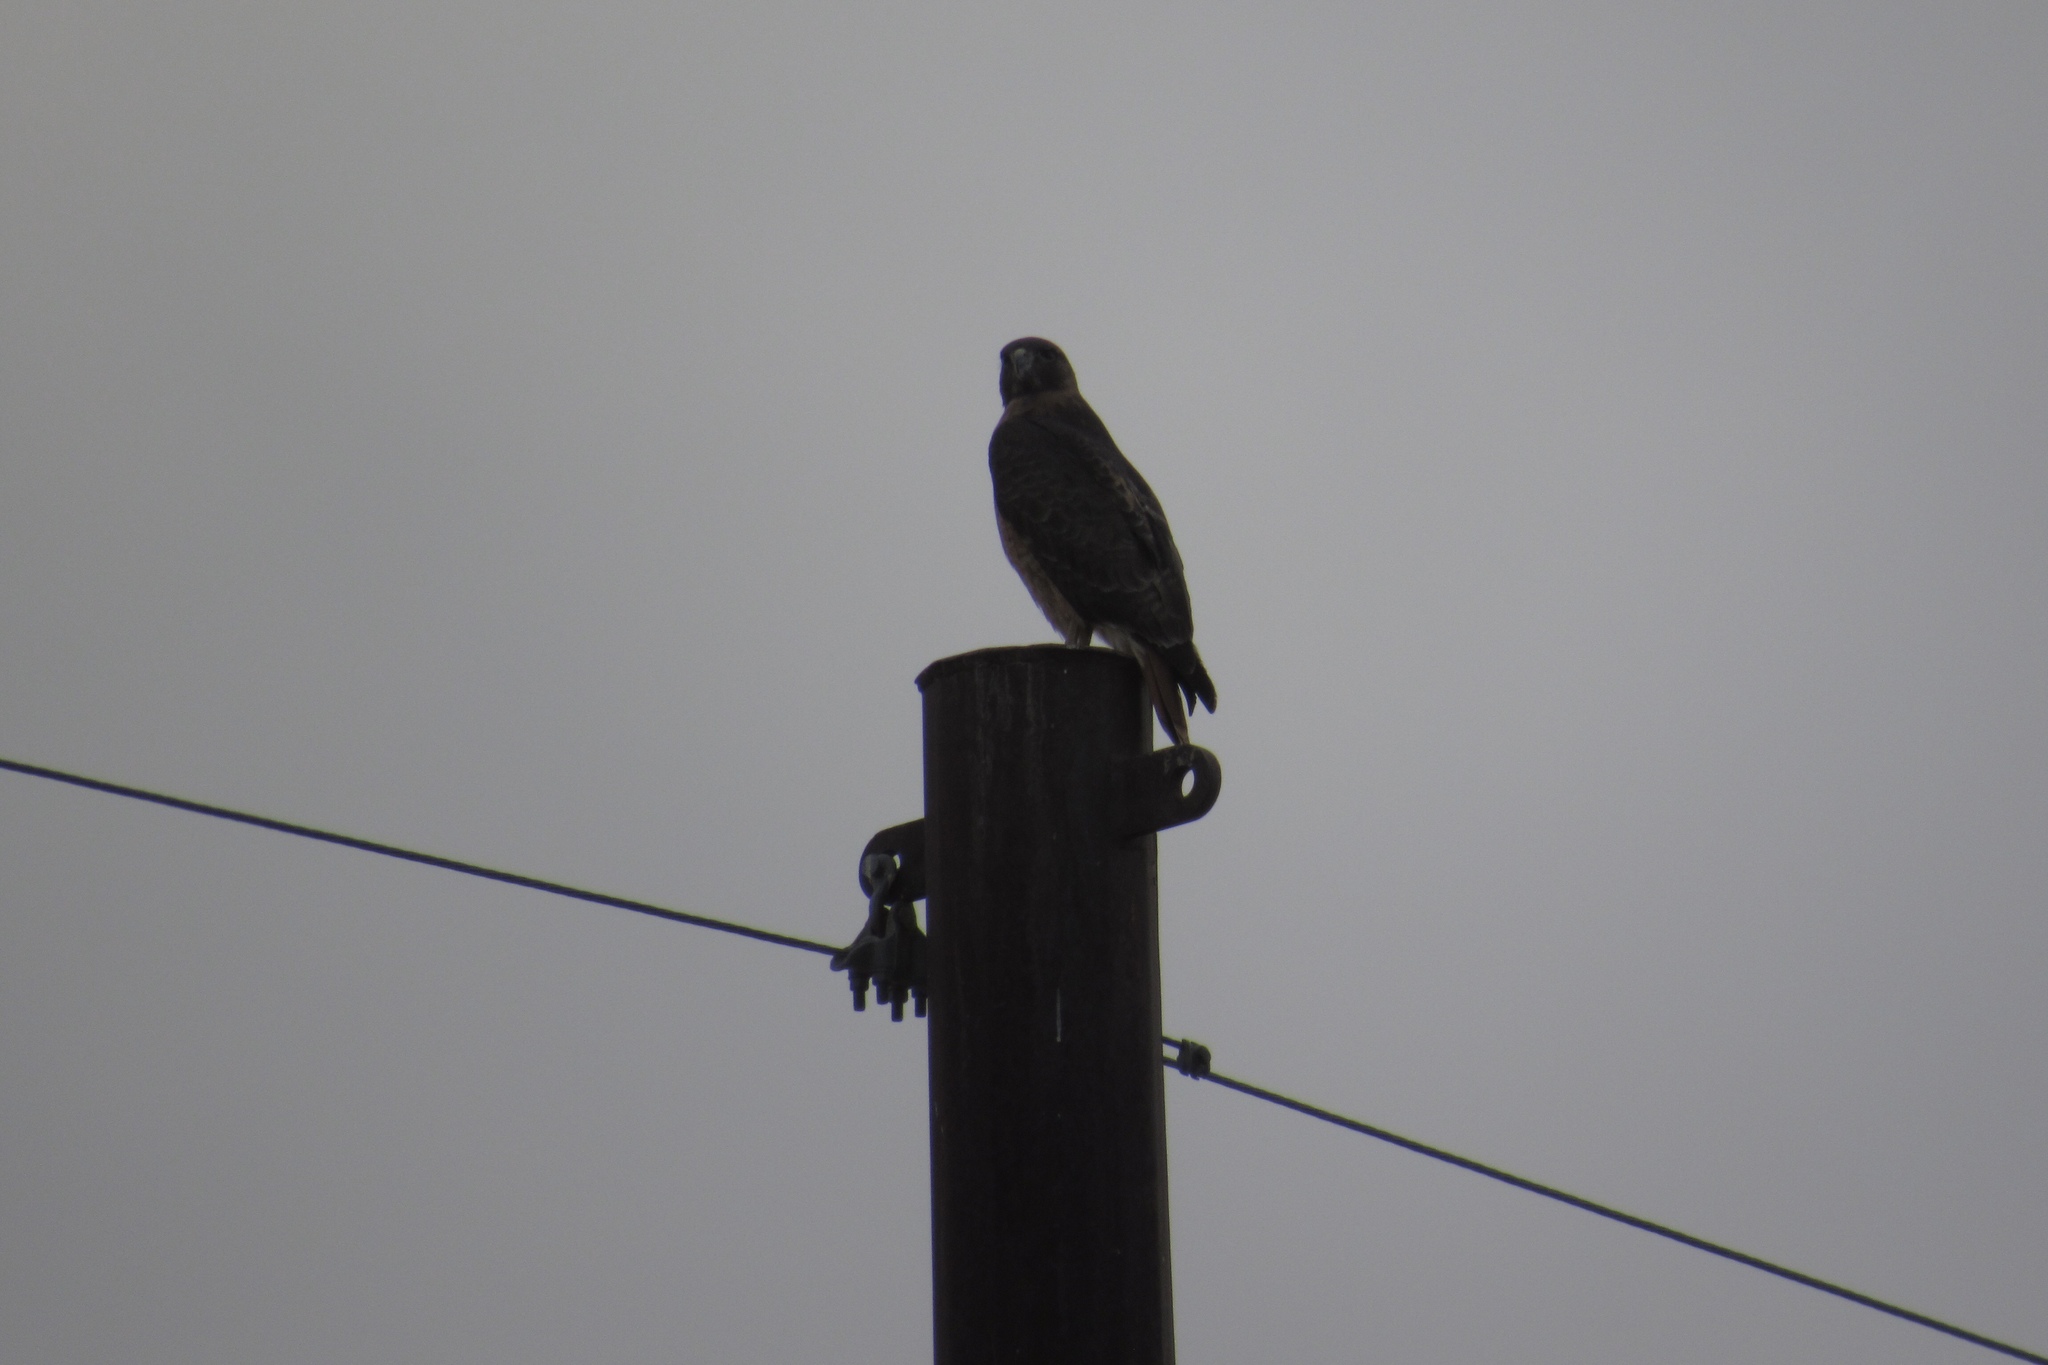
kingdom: Animalia
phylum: Chordata
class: Aves
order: Accipitriformes
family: Accipitridae
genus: Buteo
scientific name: Buteo jamaicensis
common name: Red-tailed hawk
